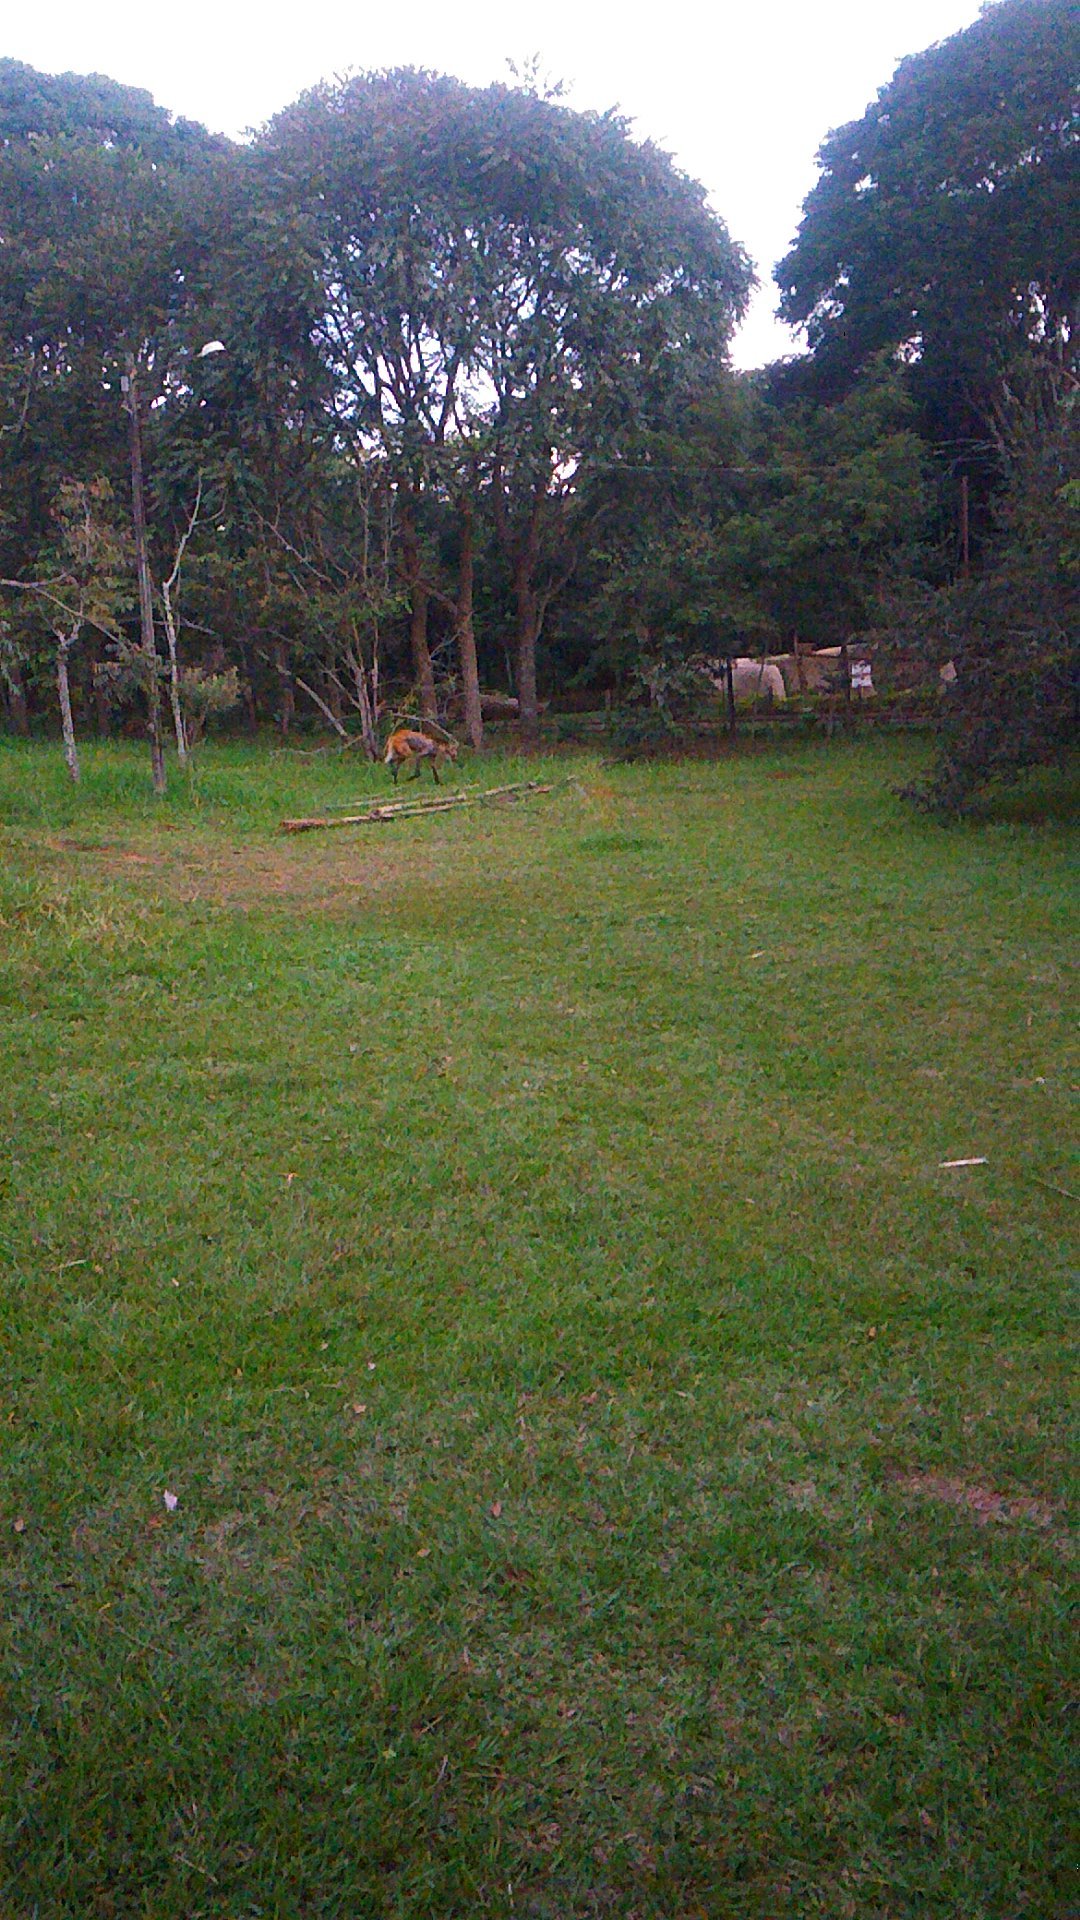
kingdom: Animalia
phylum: Chordata
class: Mammalia
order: Carnivora
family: Canidae
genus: Chrysocyon
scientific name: Chrysocyon brachyurus
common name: Maned wolf
